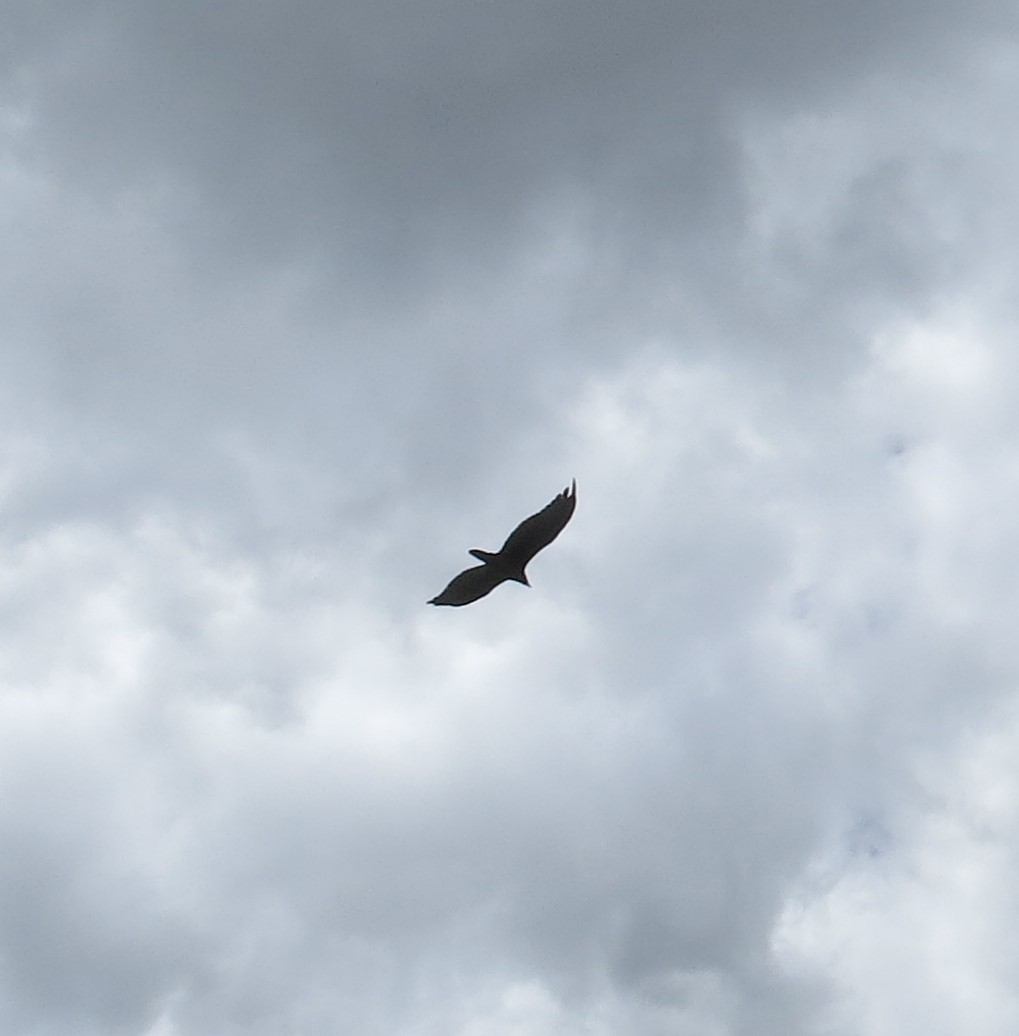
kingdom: Animalia
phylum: Chordata
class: Aves
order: Accipitriformes
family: Cathartidae
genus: Cathartes
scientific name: Cathartes aura
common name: Turkey vulture
